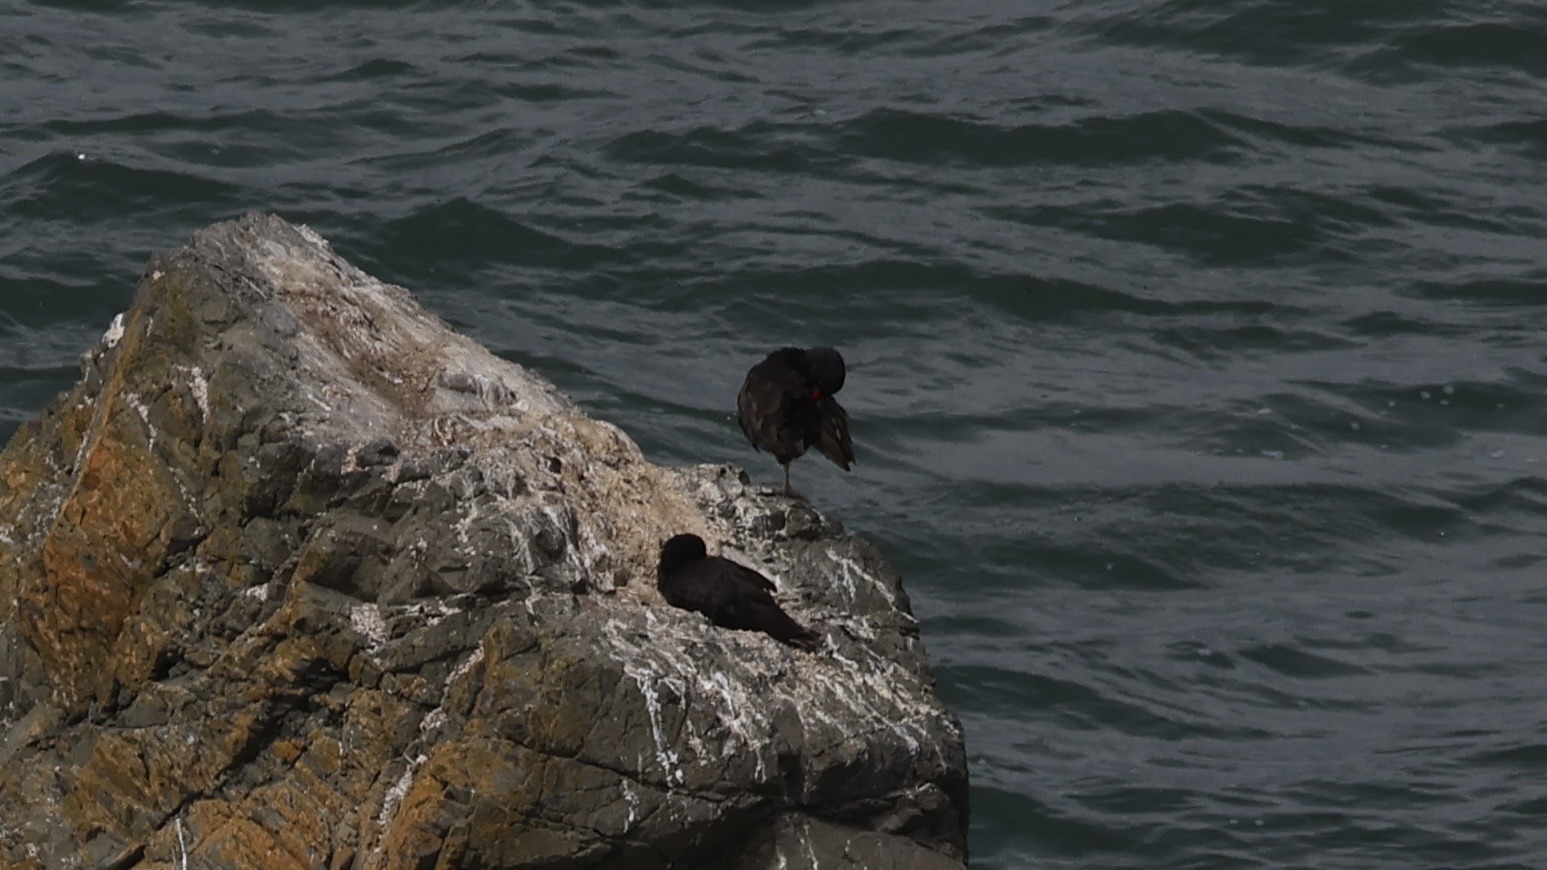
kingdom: Animalia
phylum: Chordata
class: Aves
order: Charadriiformes
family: Haematopodidae
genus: Haematopus
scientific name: Haematopus bachmani
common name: Black oystercatcher
